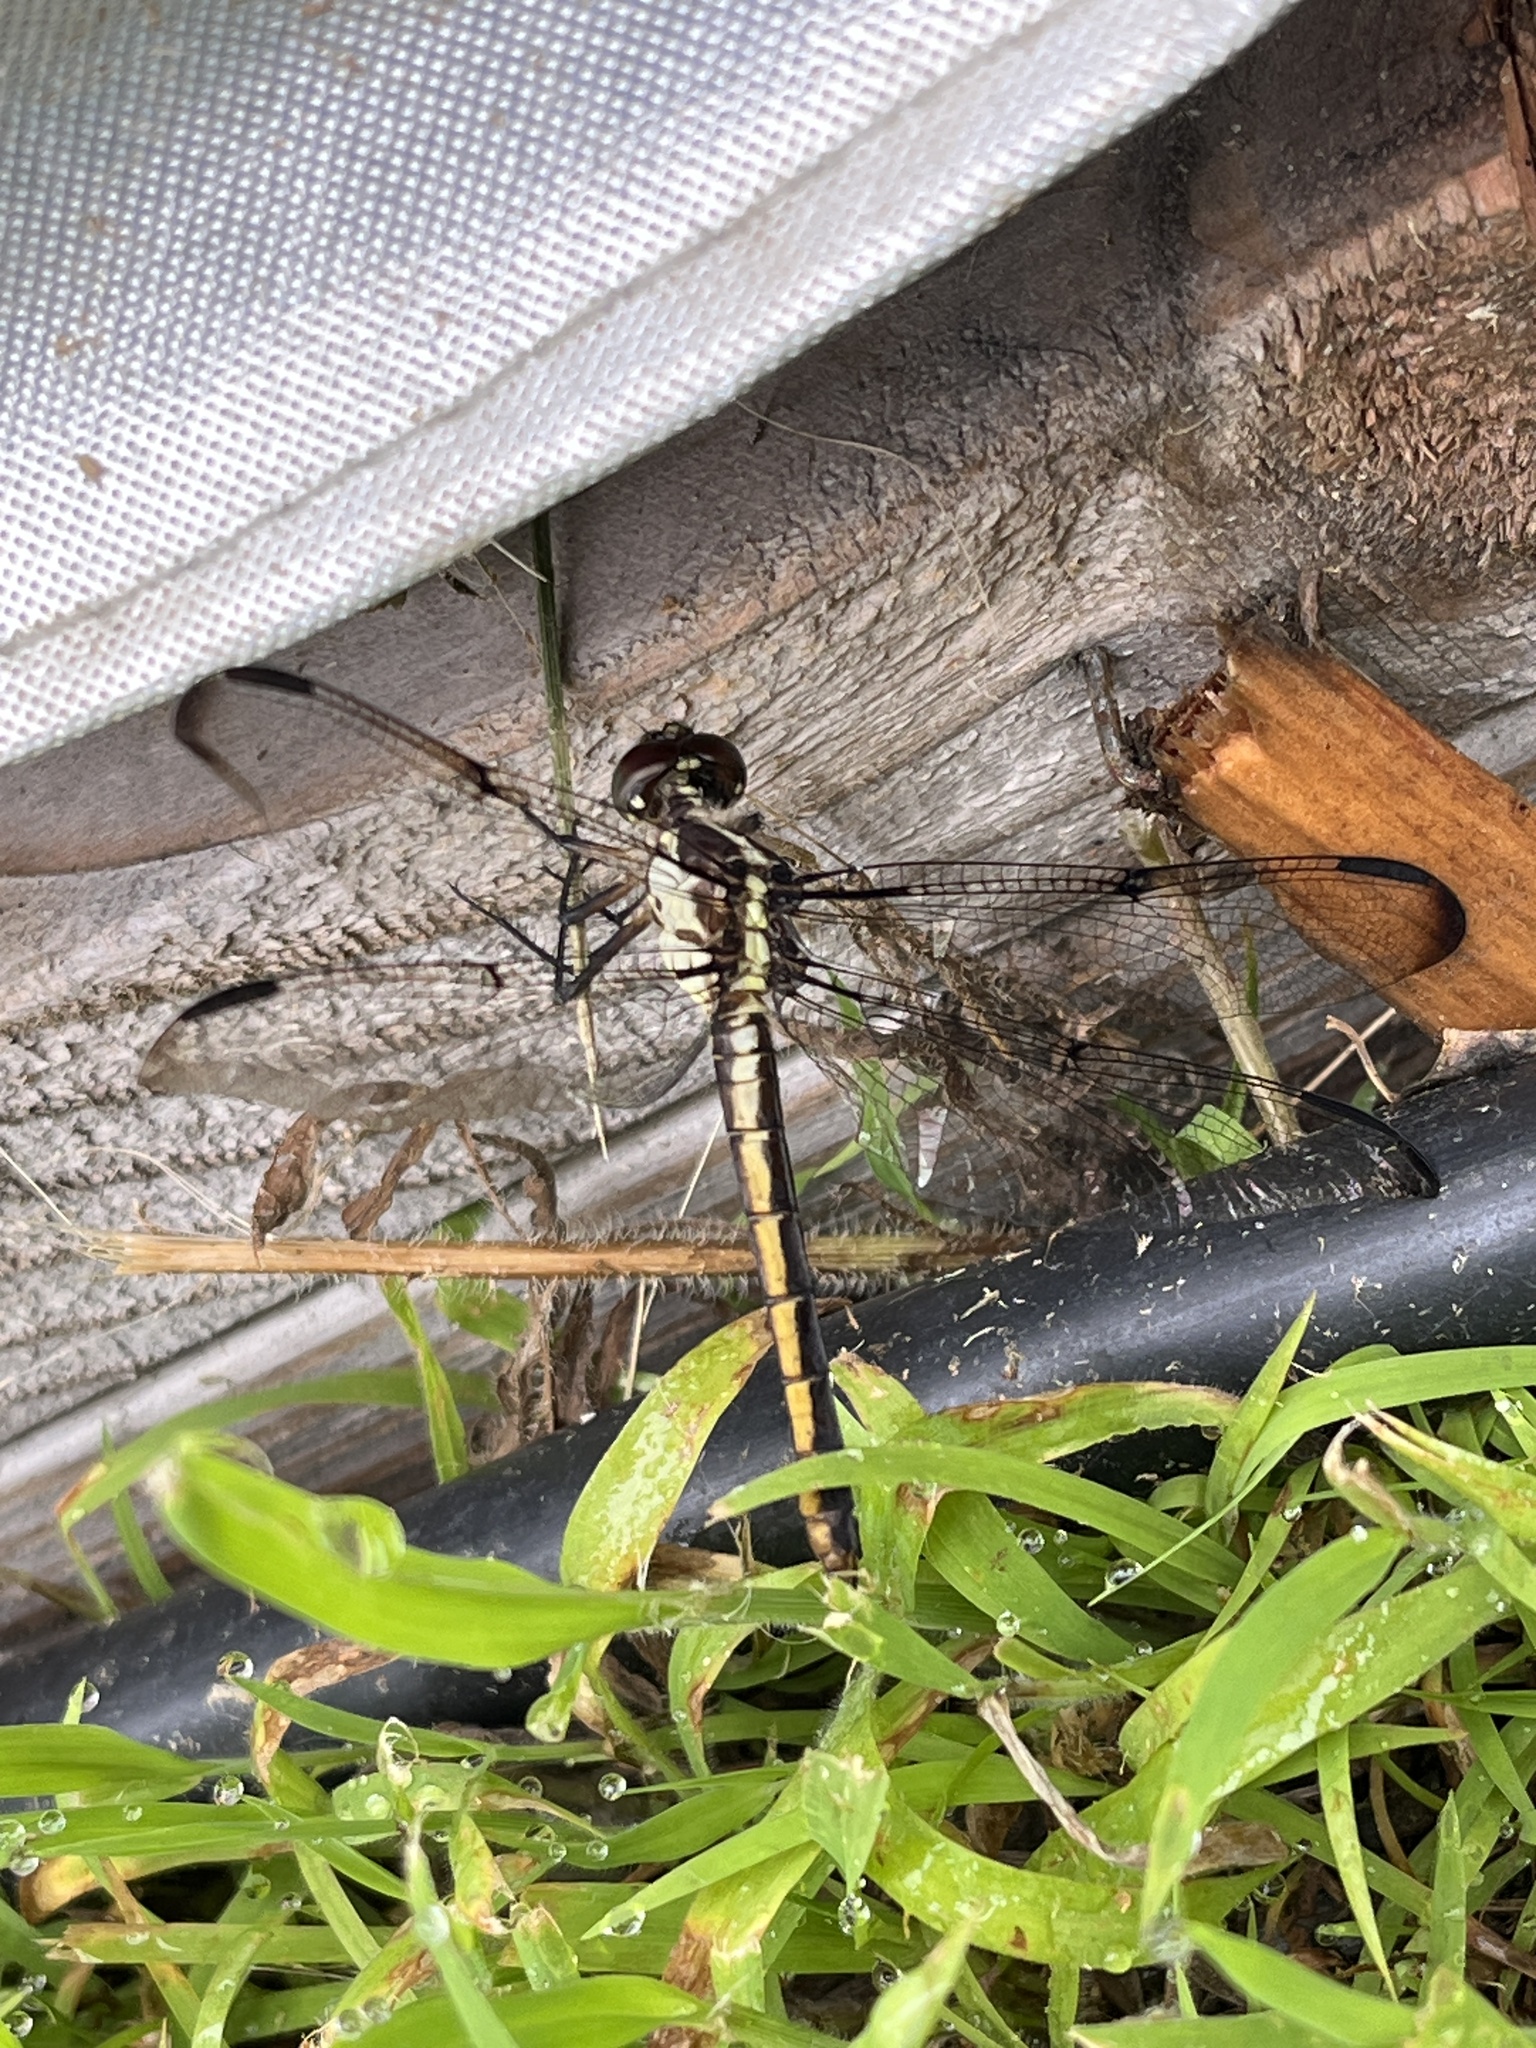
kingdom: Animalia
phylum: Arthropoda
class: Insecta
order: Odonata
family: Libellulidae
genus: Libellula
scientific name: Libellula incesta
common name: Slaty skimmer
